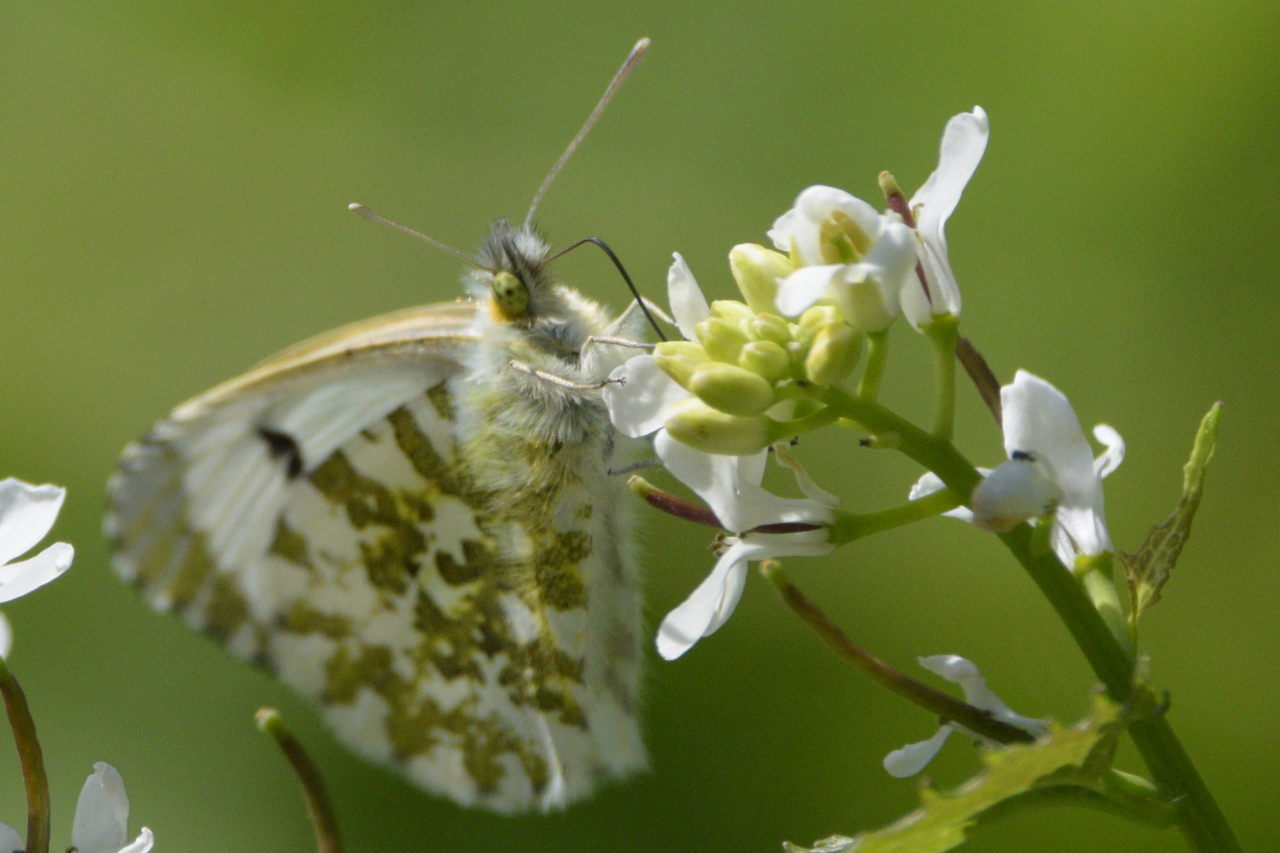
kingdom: Animalia
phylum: Arthropoda
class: Insecta
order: Lepidoptera
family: Pieridae
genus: Anthocharis
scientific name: Anthocharis cardamines
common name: Orange-tip
